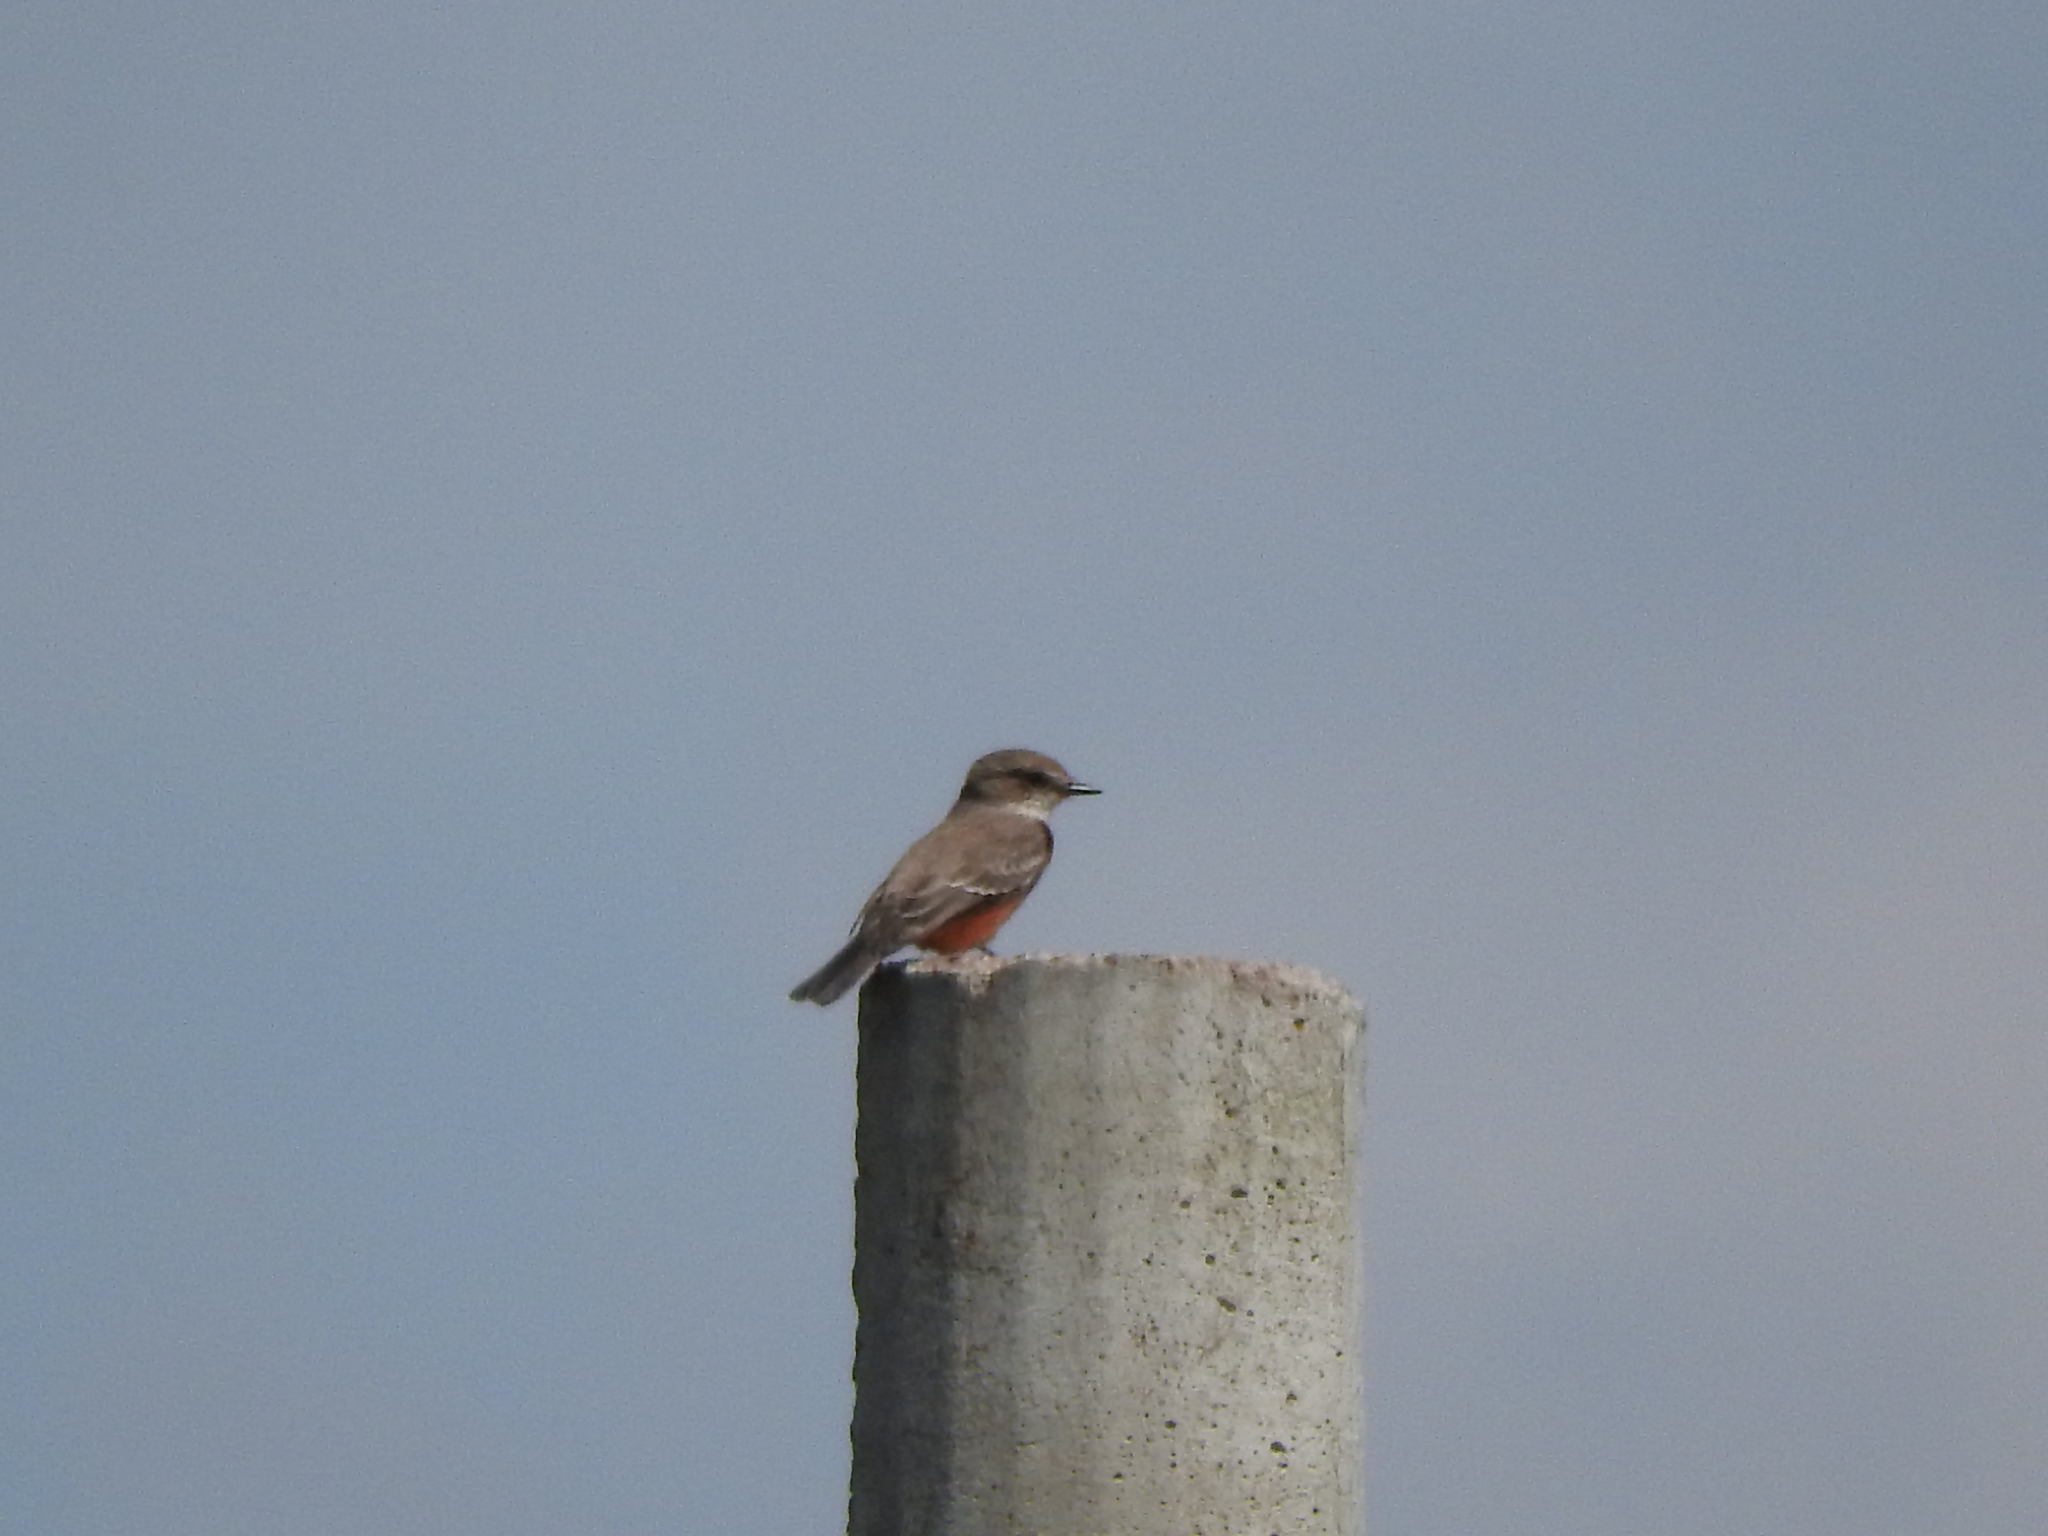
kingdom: Animalia
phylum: Chordata
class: Aves
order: Passeriformes
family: Tyrannidae
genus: Pyrocephalus
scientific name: Pyrocephalus rubinus
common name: Vermilion flycatcher
